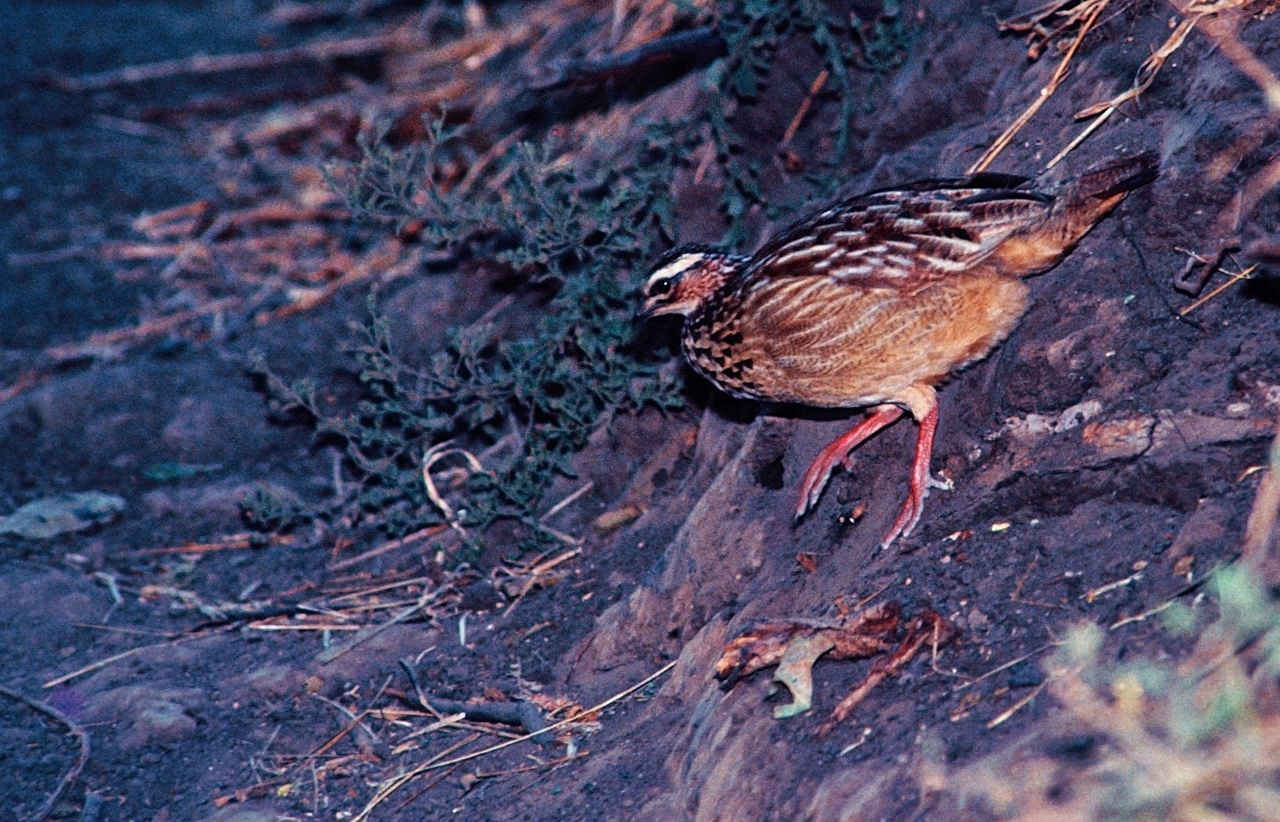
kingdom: Animalia
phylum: Chordata
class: Aves
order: Galliformes
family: Phasianidae
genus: Ortygornis
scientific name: Ortygornis sephaena
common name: Crested francolin
